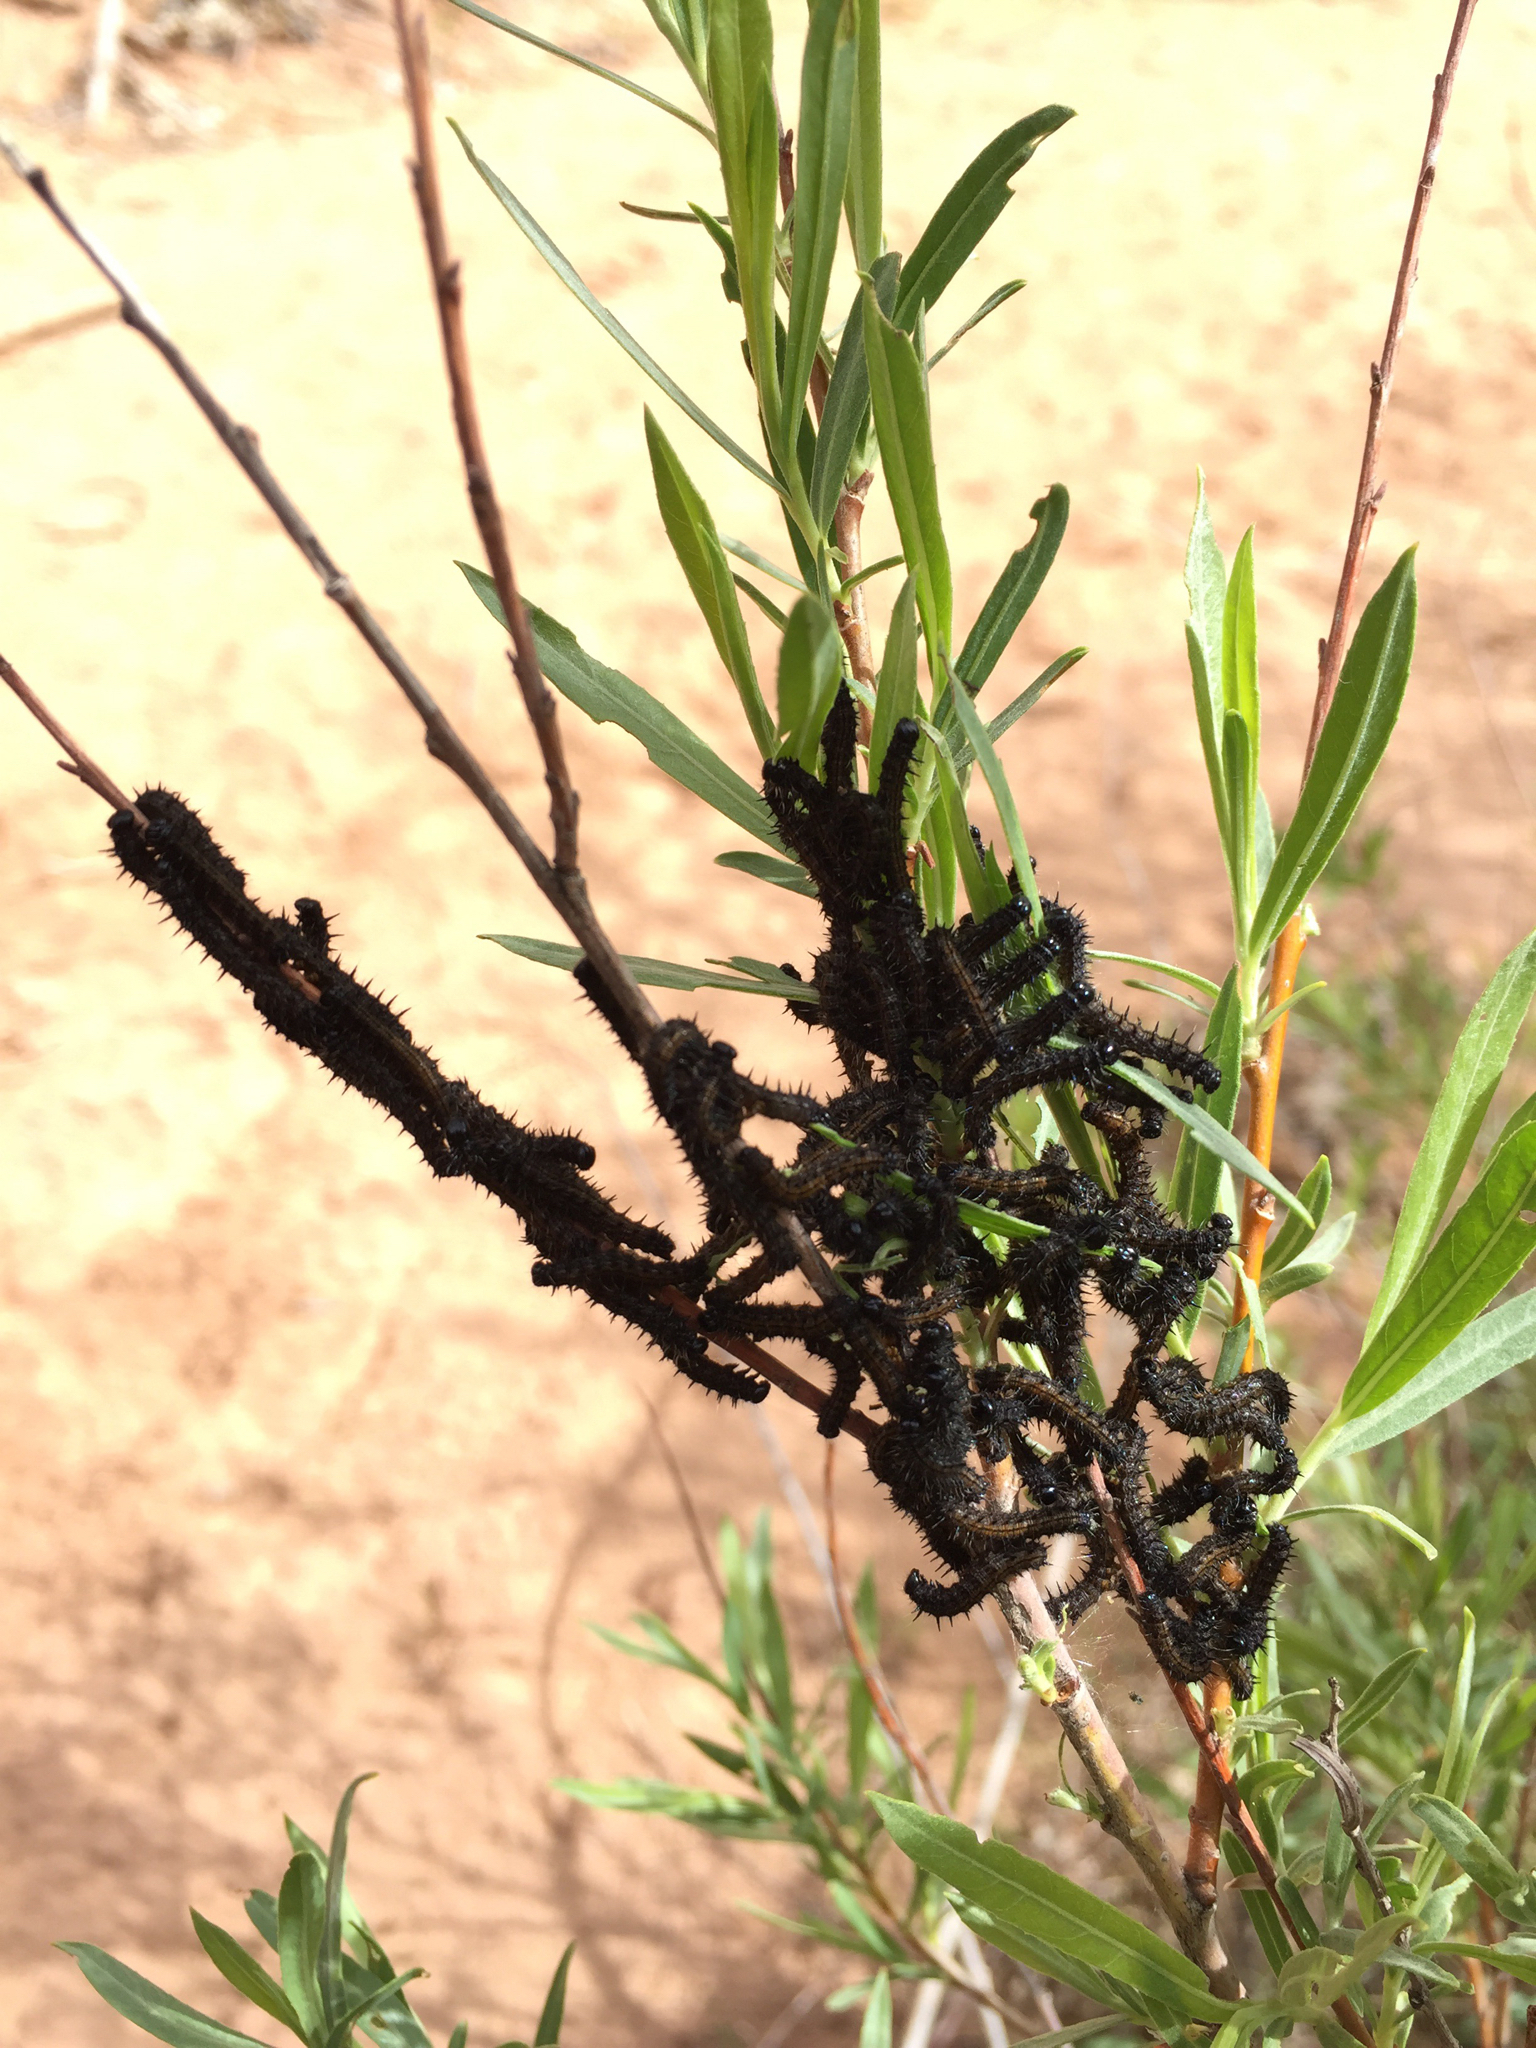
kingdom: Animalia
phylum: Arthropoda
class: Insecta
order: Lepidoptera
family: Nymphalidae
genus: Nymphalis
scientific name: Nymphalis antiopa
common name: Camberwell beauty
